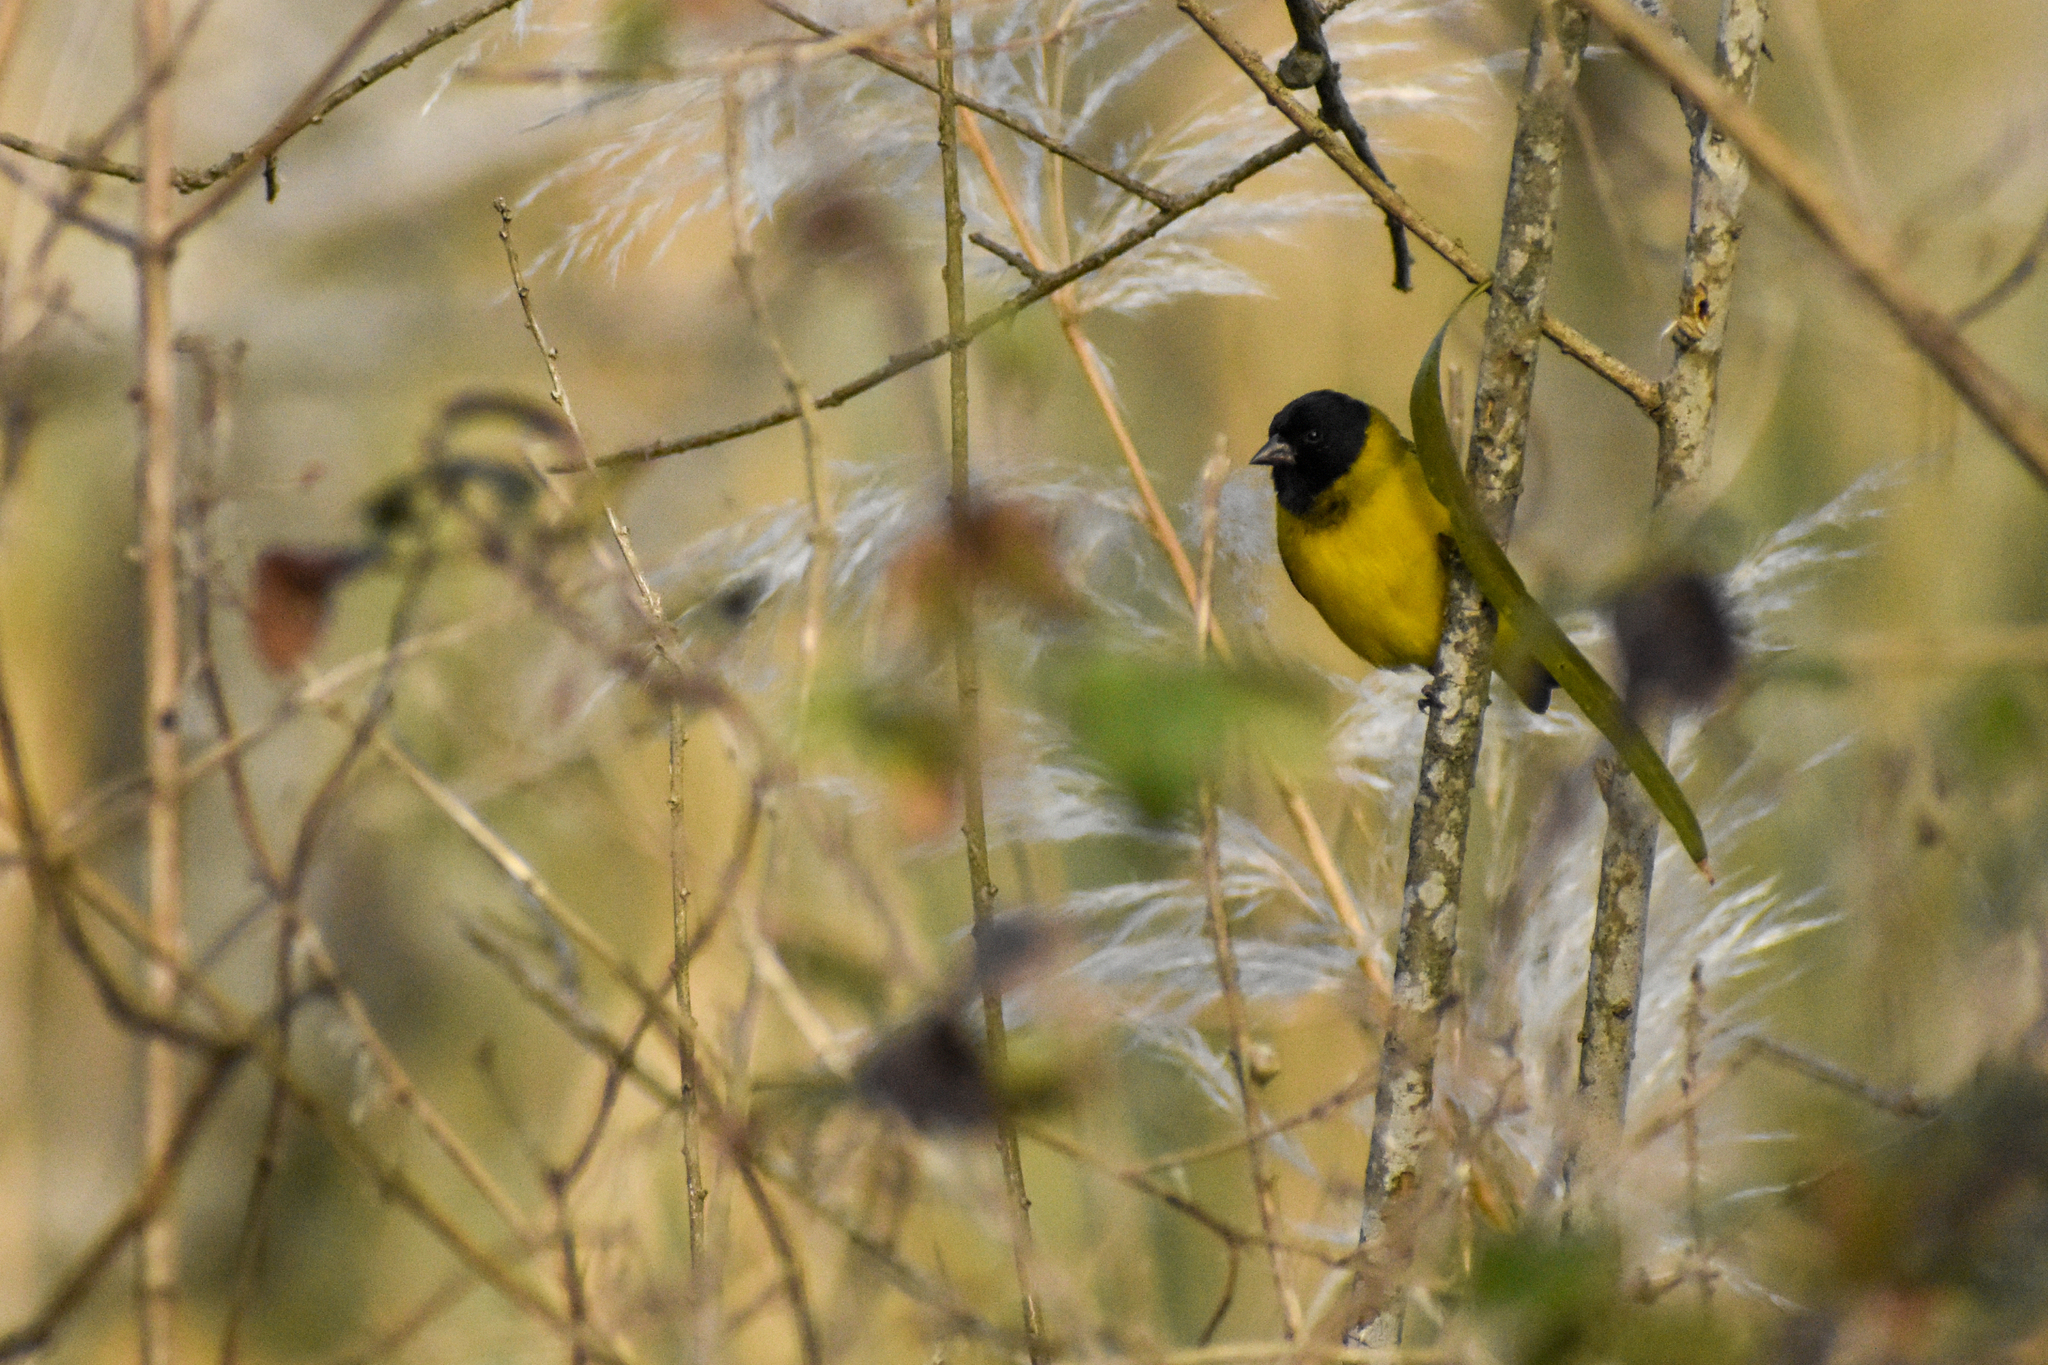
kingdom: Animalia
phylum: Chordata
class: Aves
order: Passeriformes
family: Fringillidae
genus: Spinus
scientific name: Spinus magellanicus
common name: Hooded siskin
